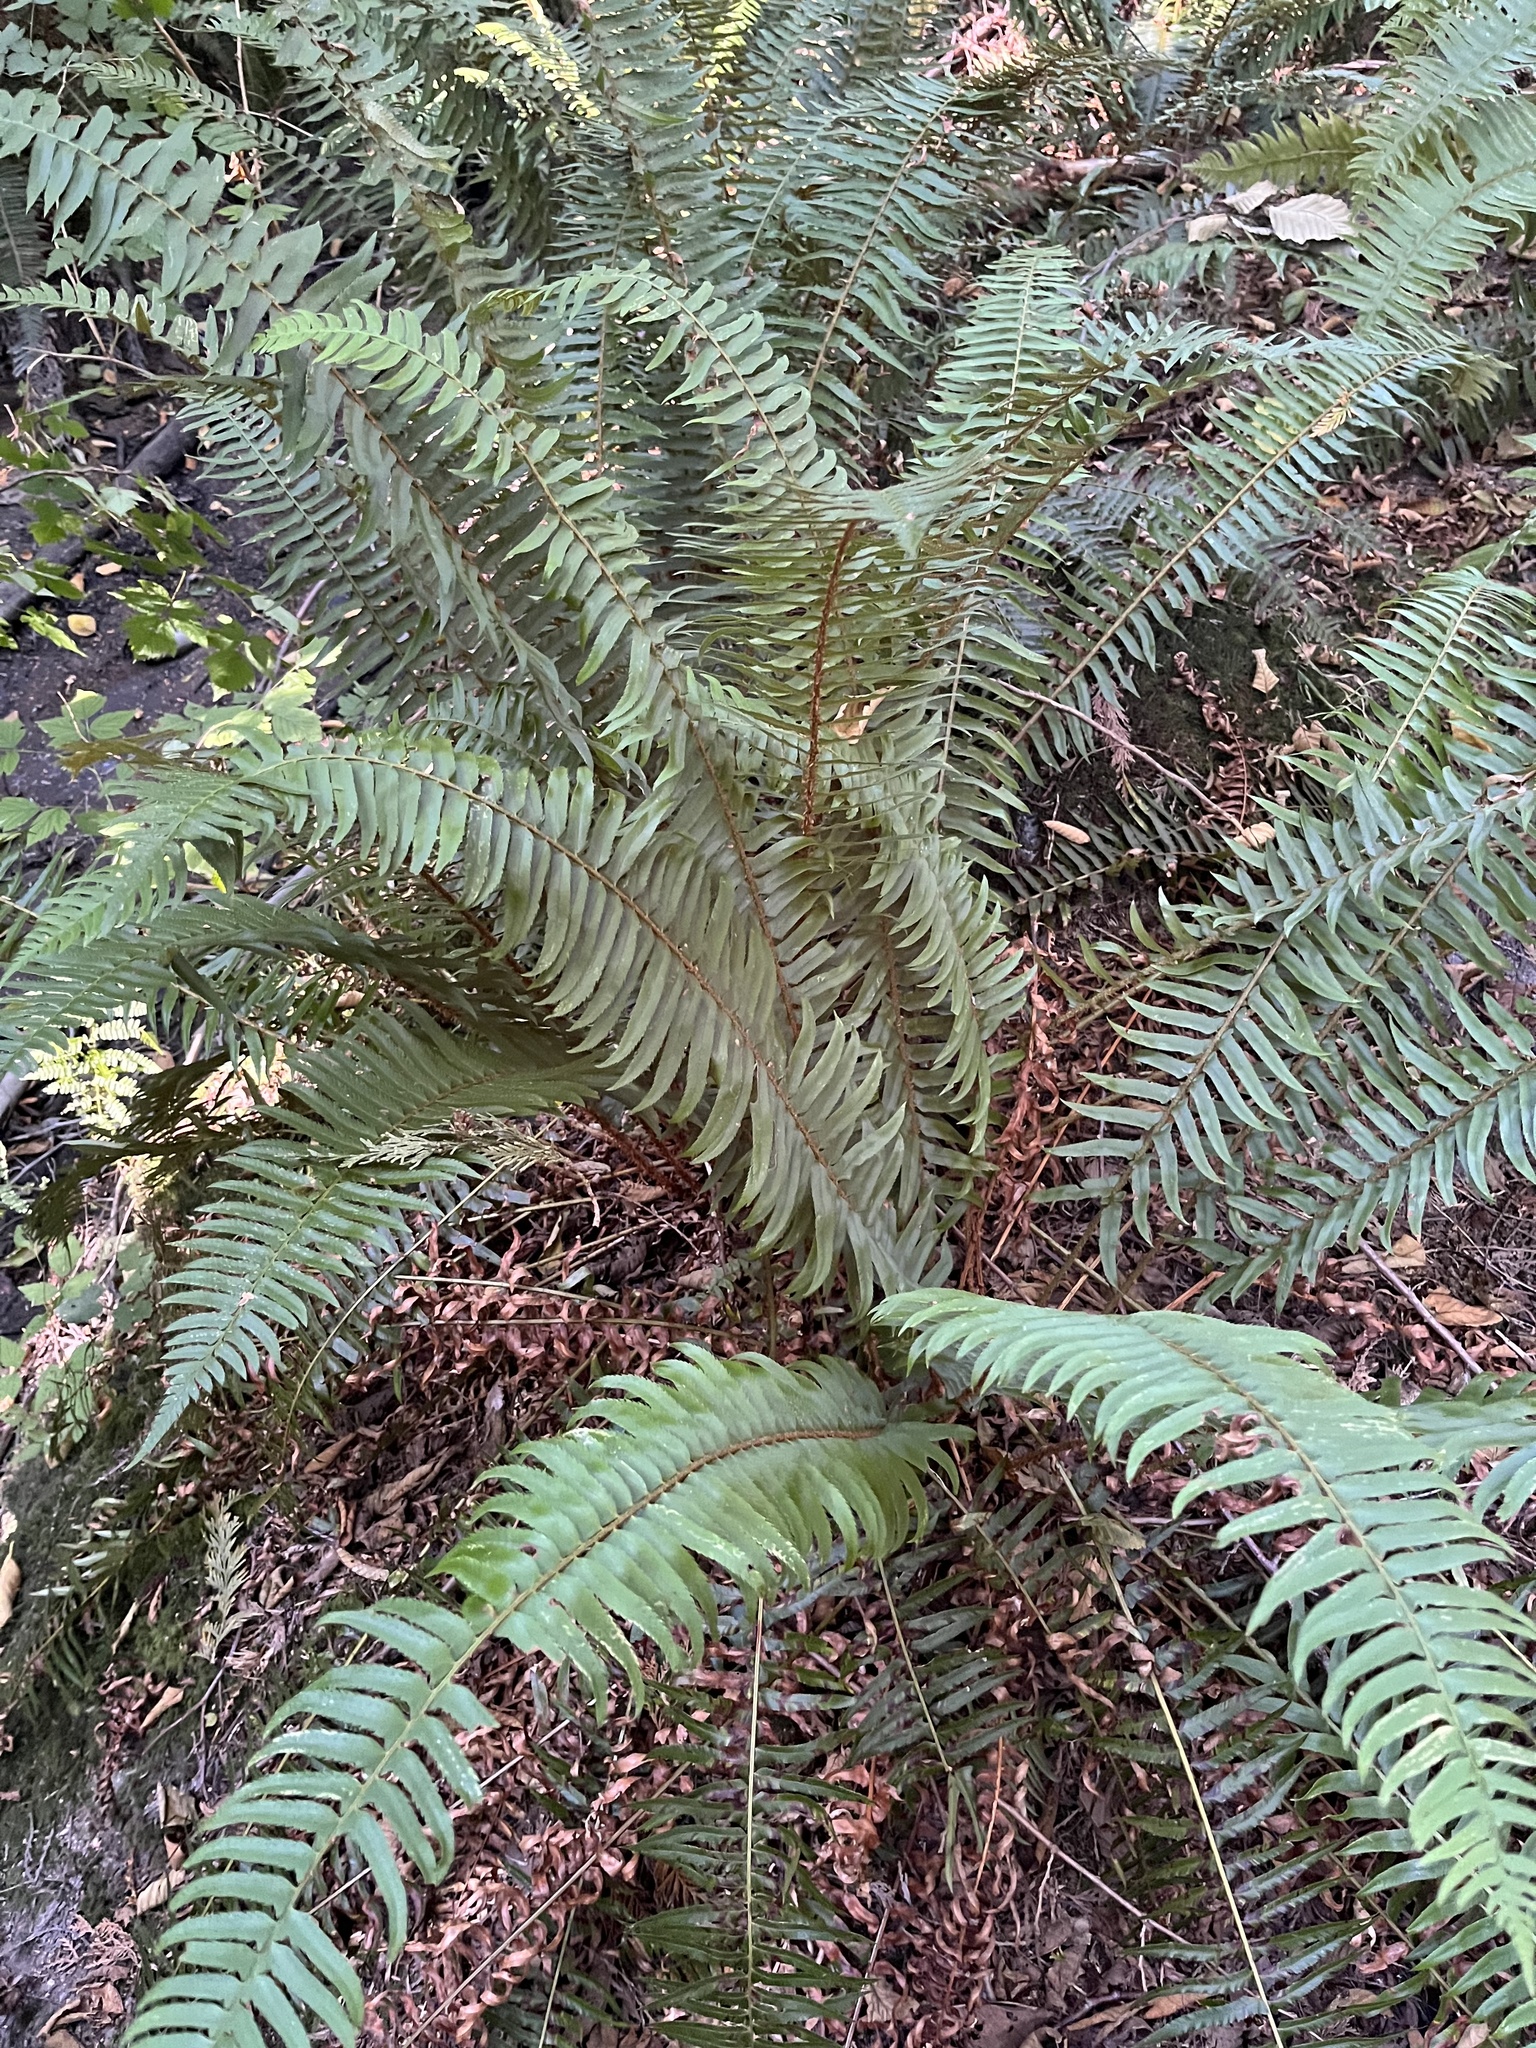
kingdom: Plantae
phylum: Tracheophyta
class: Polypodiopsida
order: Polypodiales
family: Dryopteridaceae
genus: Polystichum
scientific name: Polystichum munitum
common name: Western sword-fern
